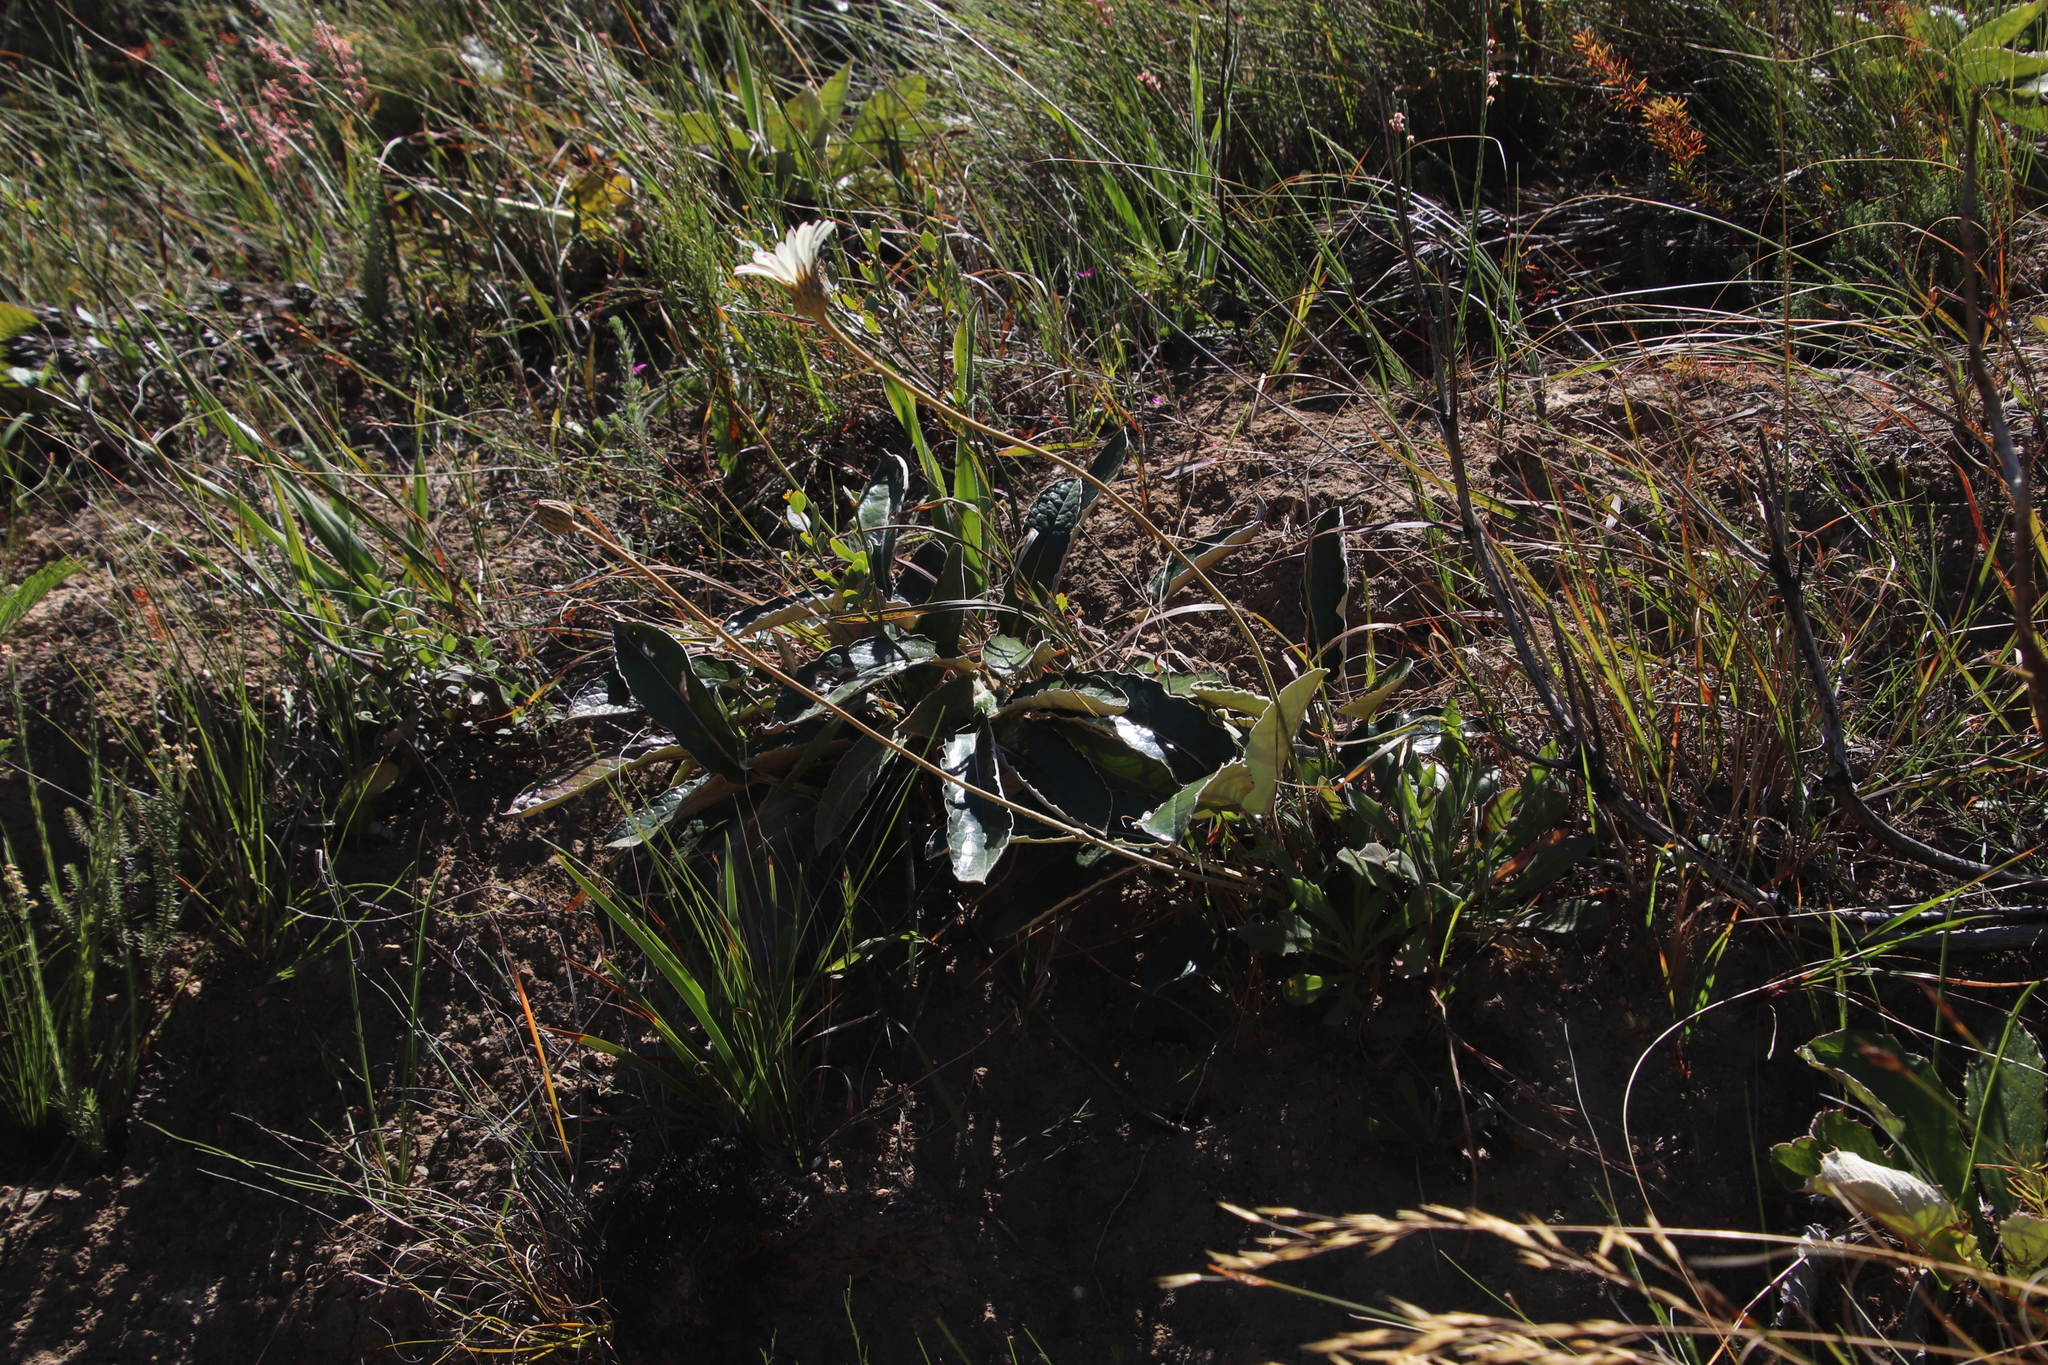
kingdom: Plantae
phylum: Tracheophyta
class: Magnoliopsida
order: Asterales
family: Asteraceae
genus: Gerbera
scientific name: Gerbera tomentosa
